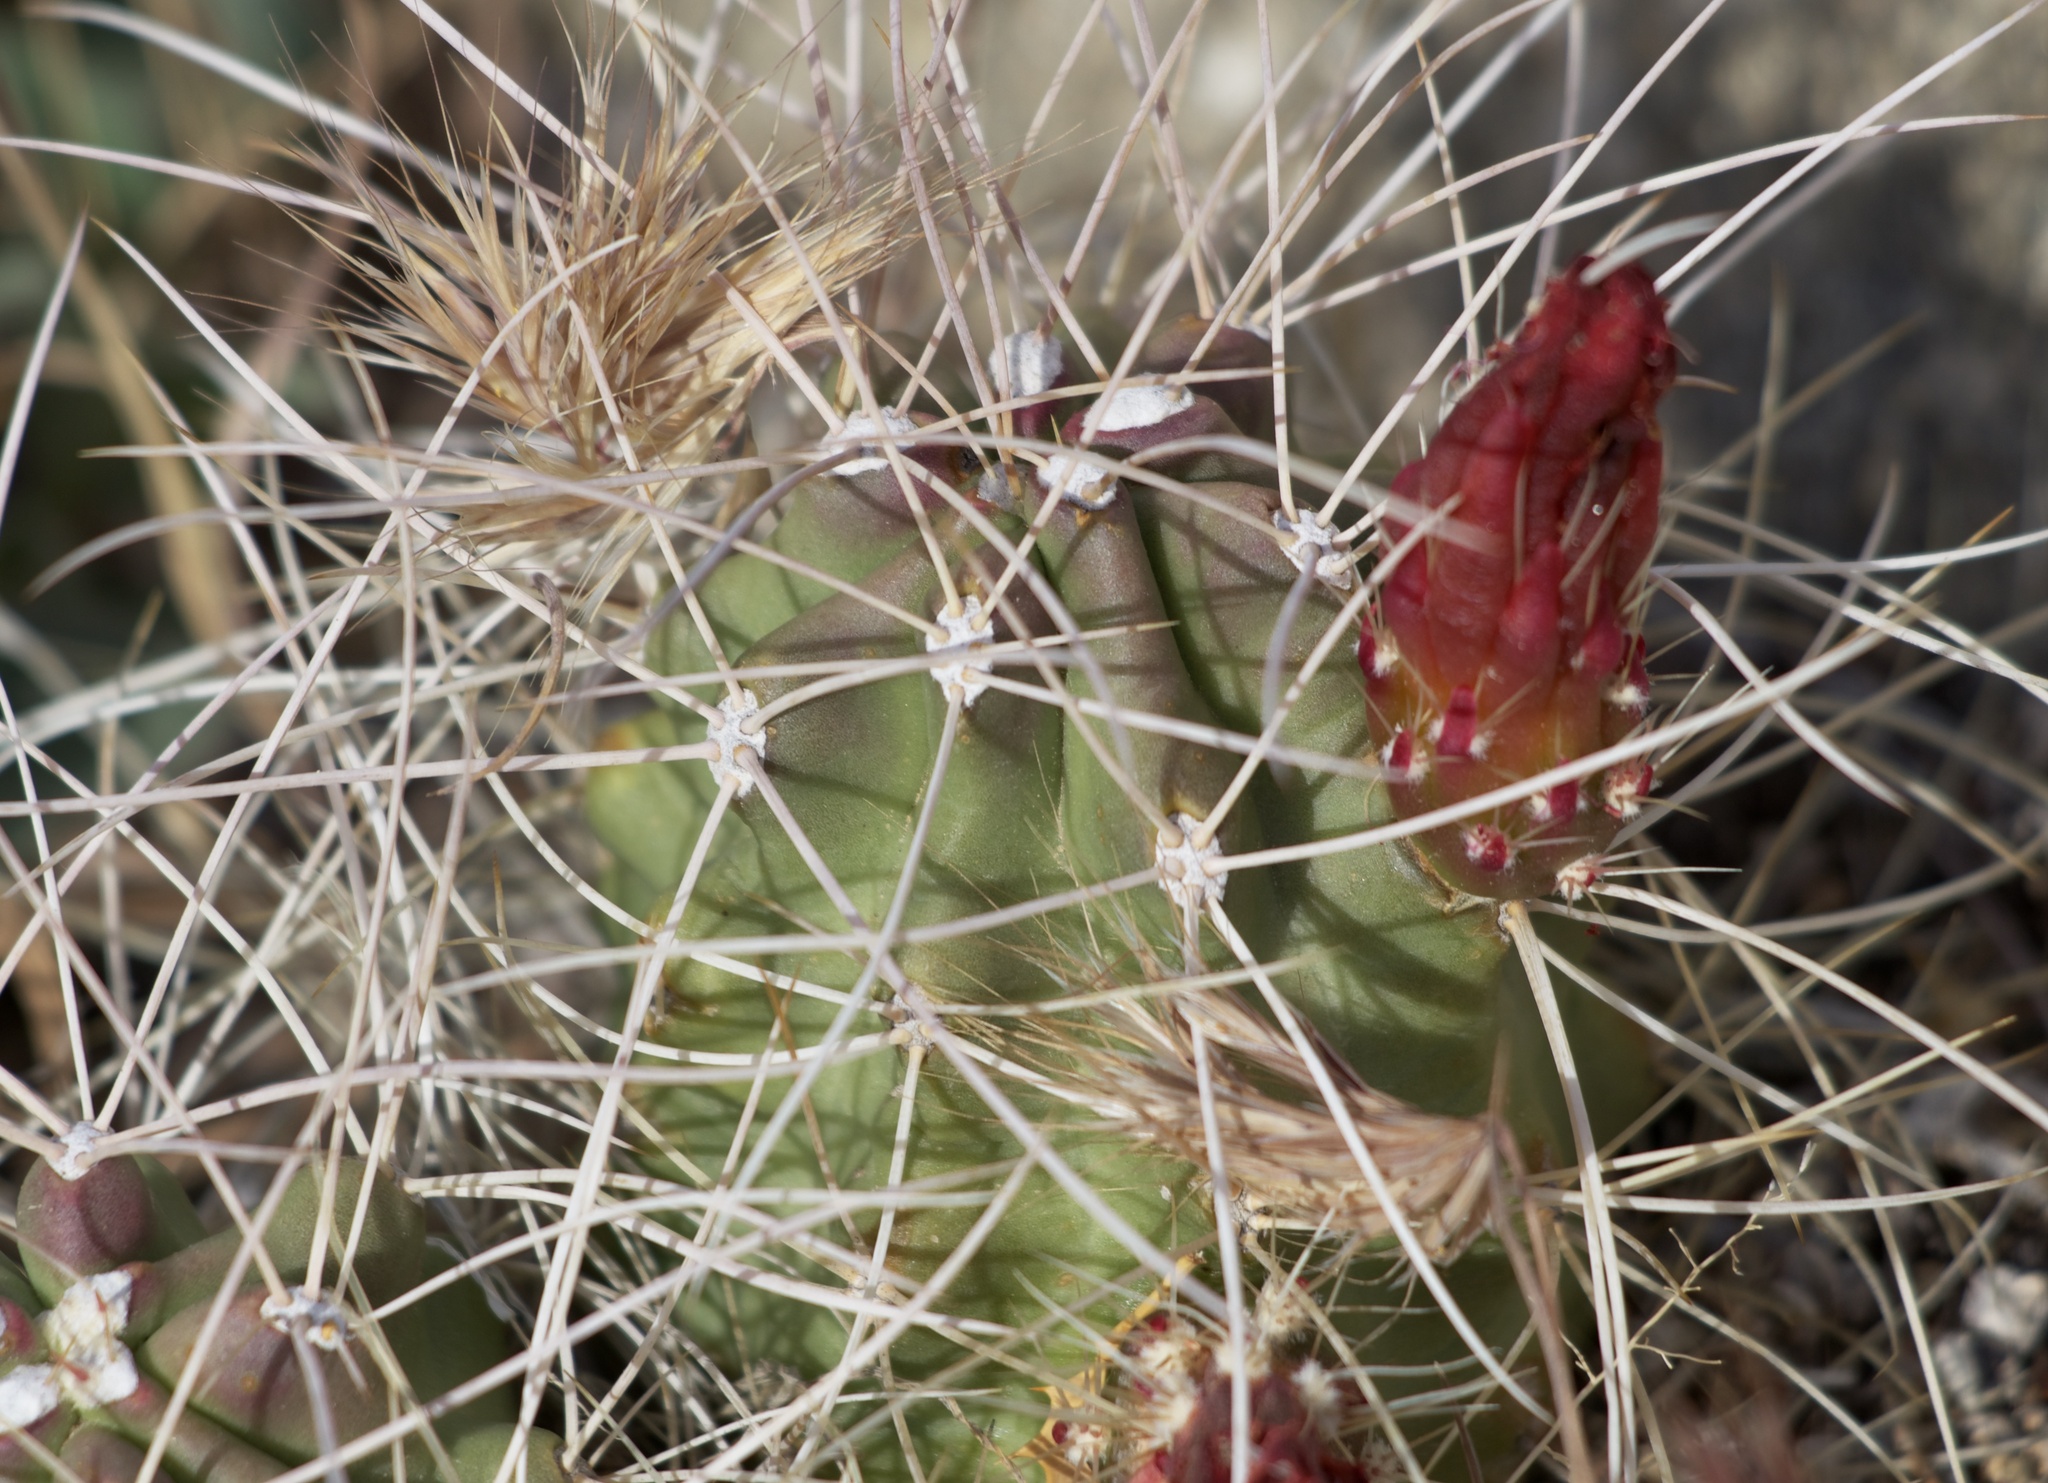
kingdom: Plantae
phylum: Tracheophyta
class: Magnoliopsida
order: Caryophyllales
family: Cactaceae
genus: Echinocereus
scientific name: Echinocereus triglochidiatus
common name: Claretcup hedgehog
